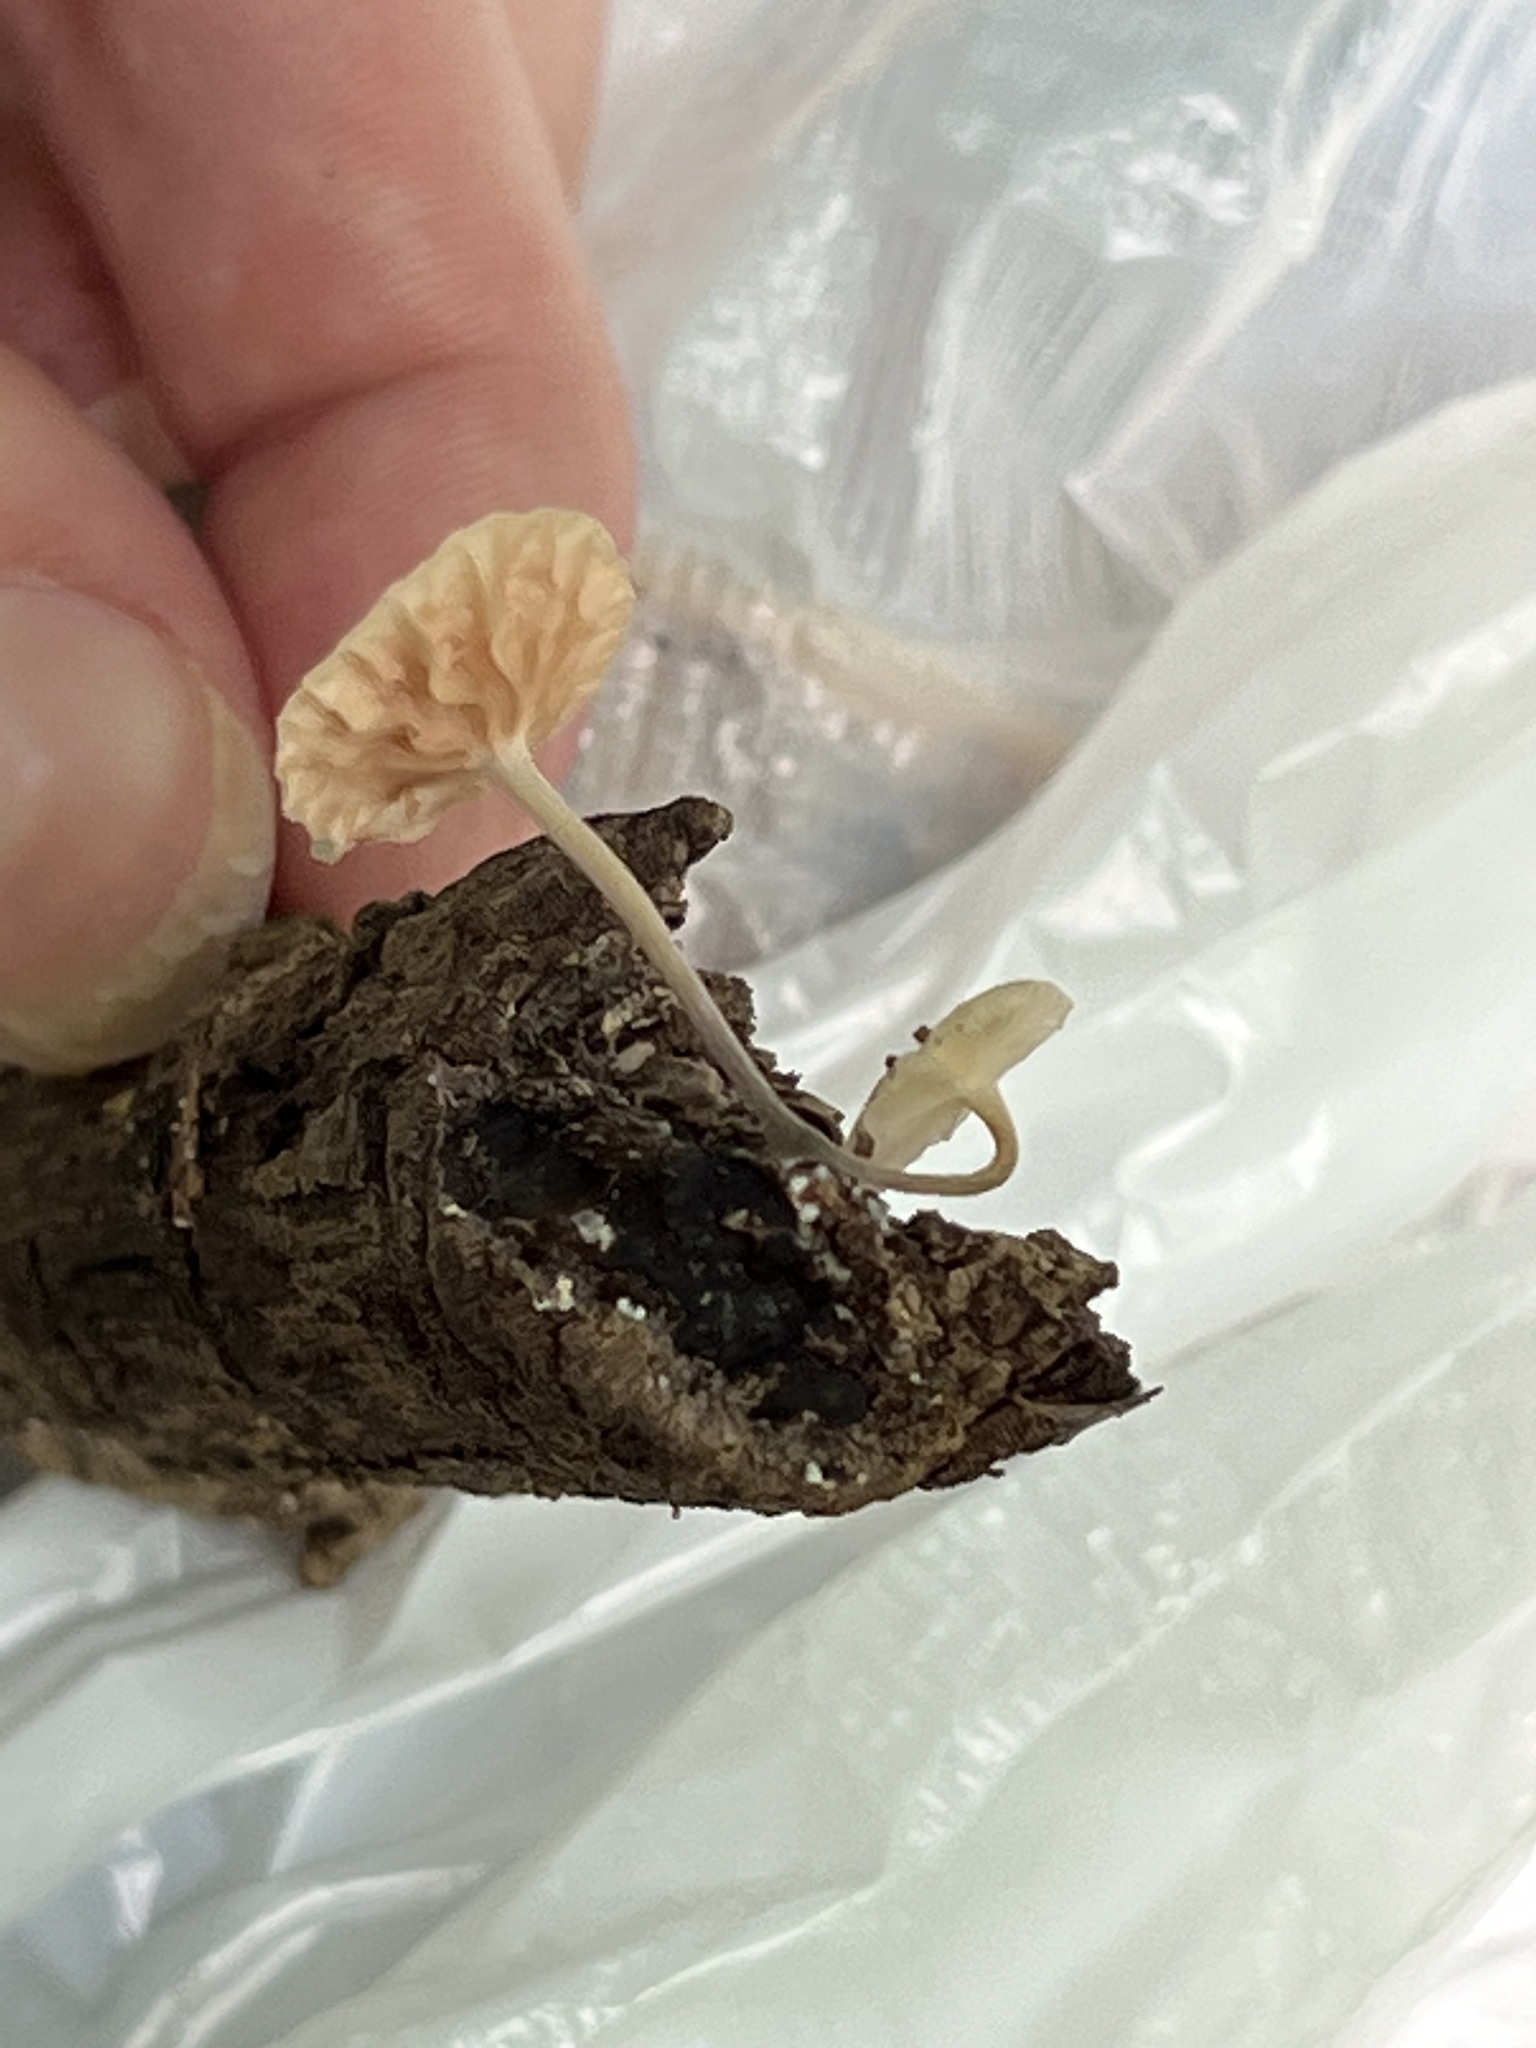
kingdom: Fungi
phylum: Basidiomycota
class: Agaricomycetes
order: Agaricales
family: Marasmiaceae
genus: Tetrapyrgos
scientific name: Tetrapyrgos nigripes
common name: Black-stalked marasmius
